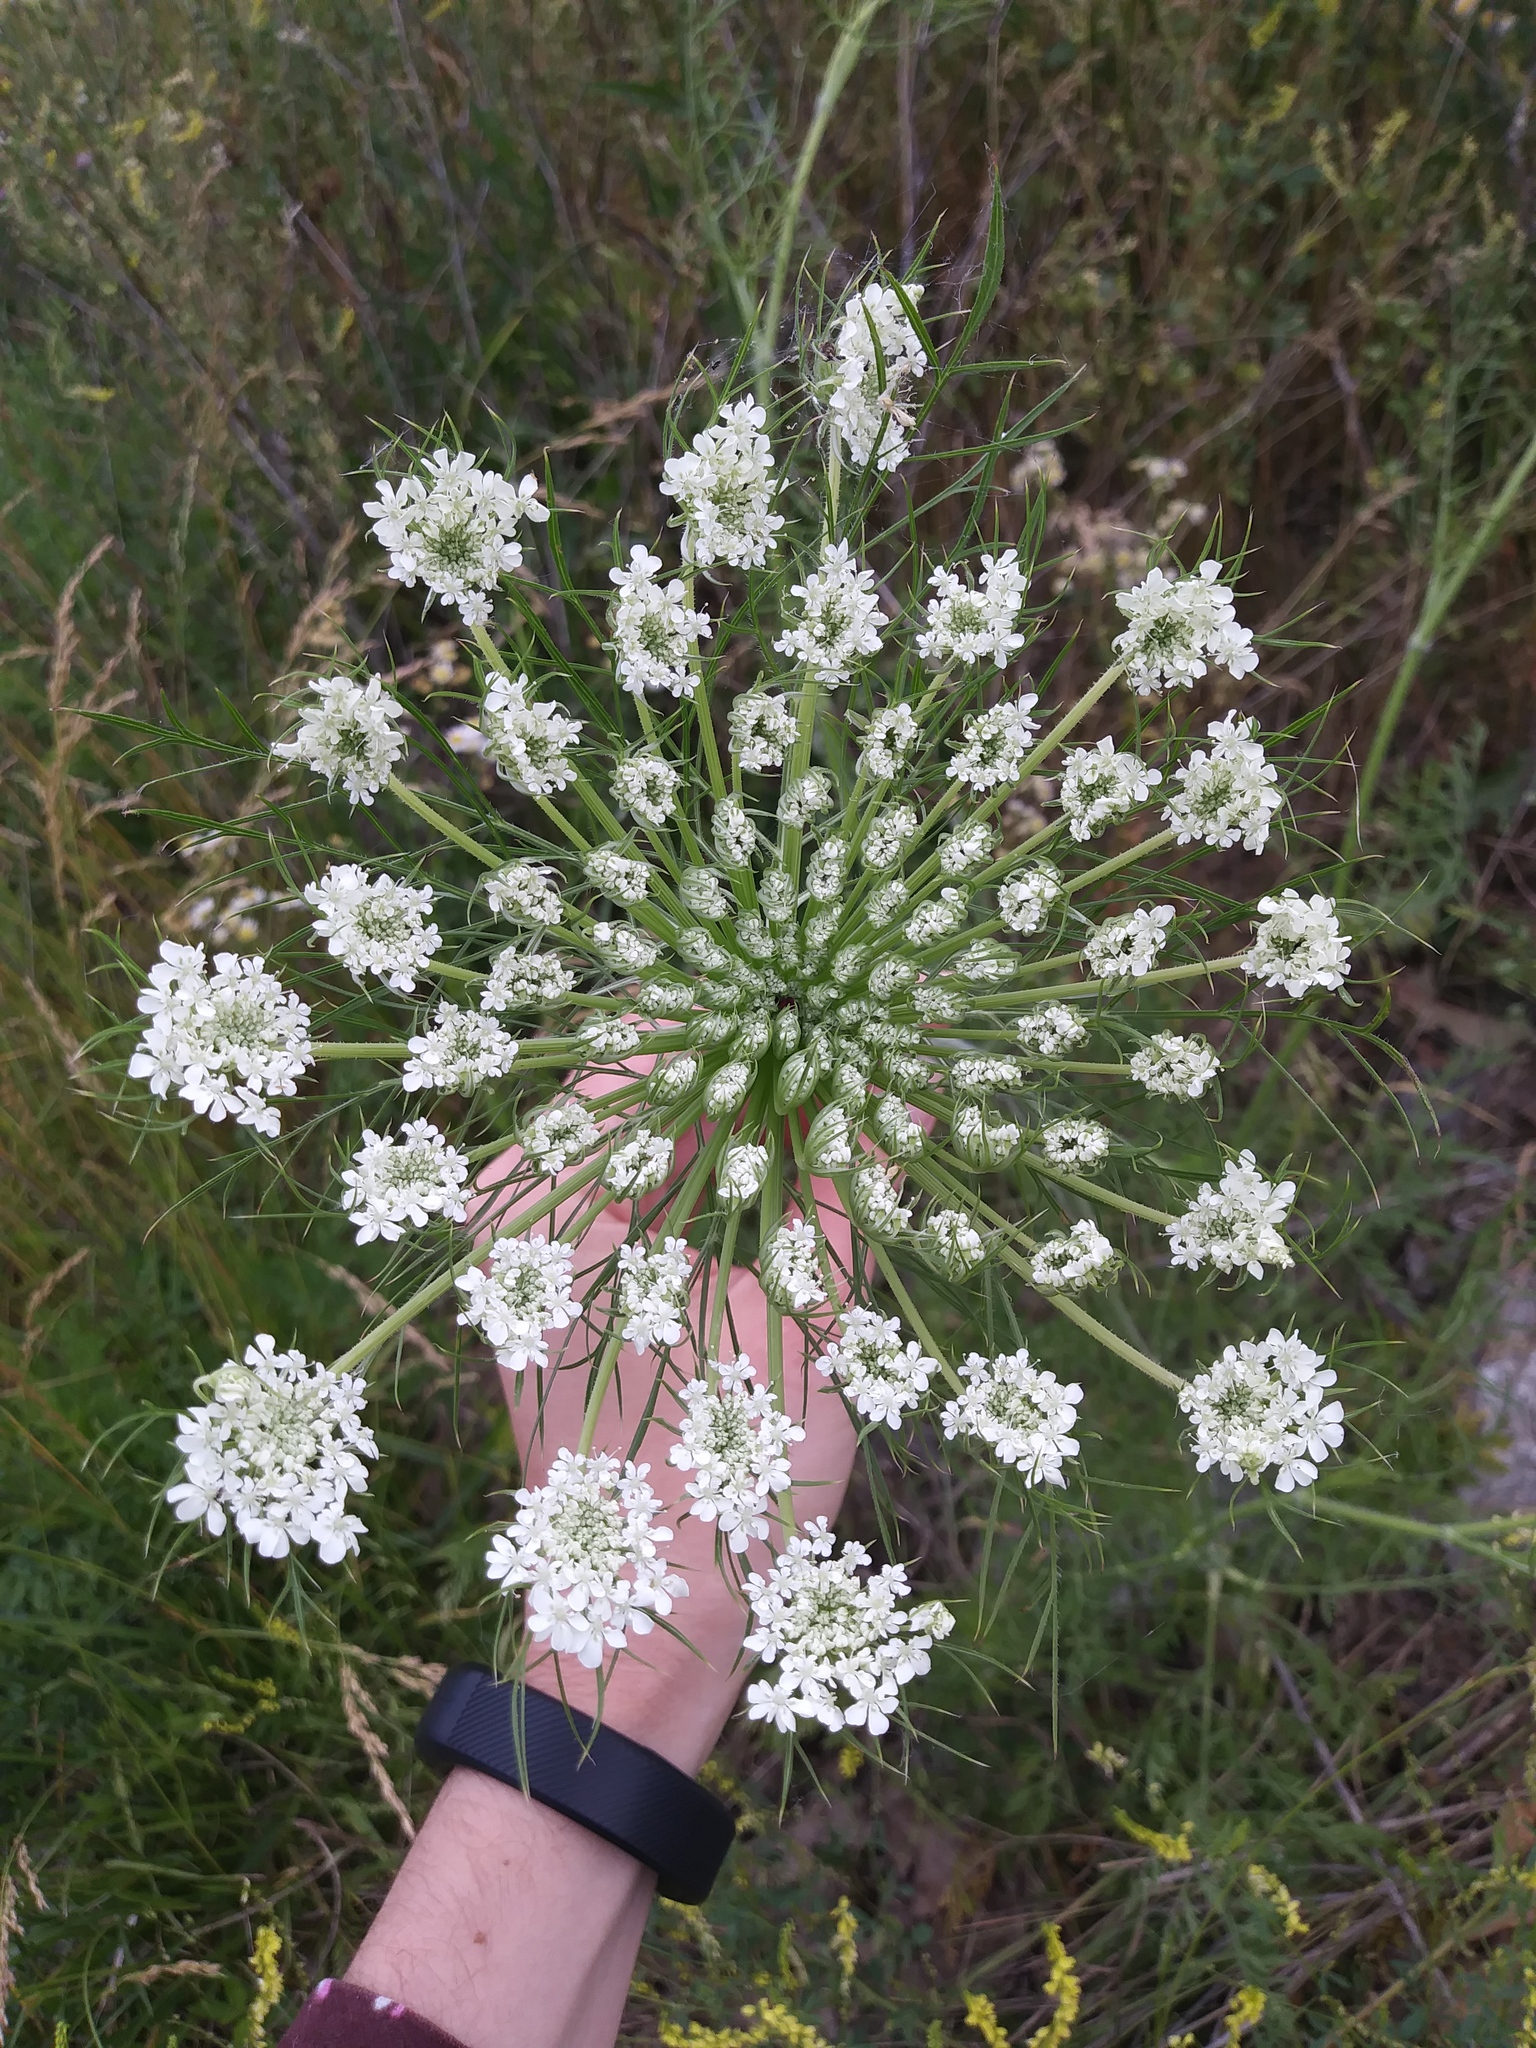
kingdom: Plantae
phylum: Tracheophyta
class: Magnoliopsida
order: Apiales
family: Apiaceae
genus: Daucus
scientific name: Daucus carota
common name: Wild carrot
